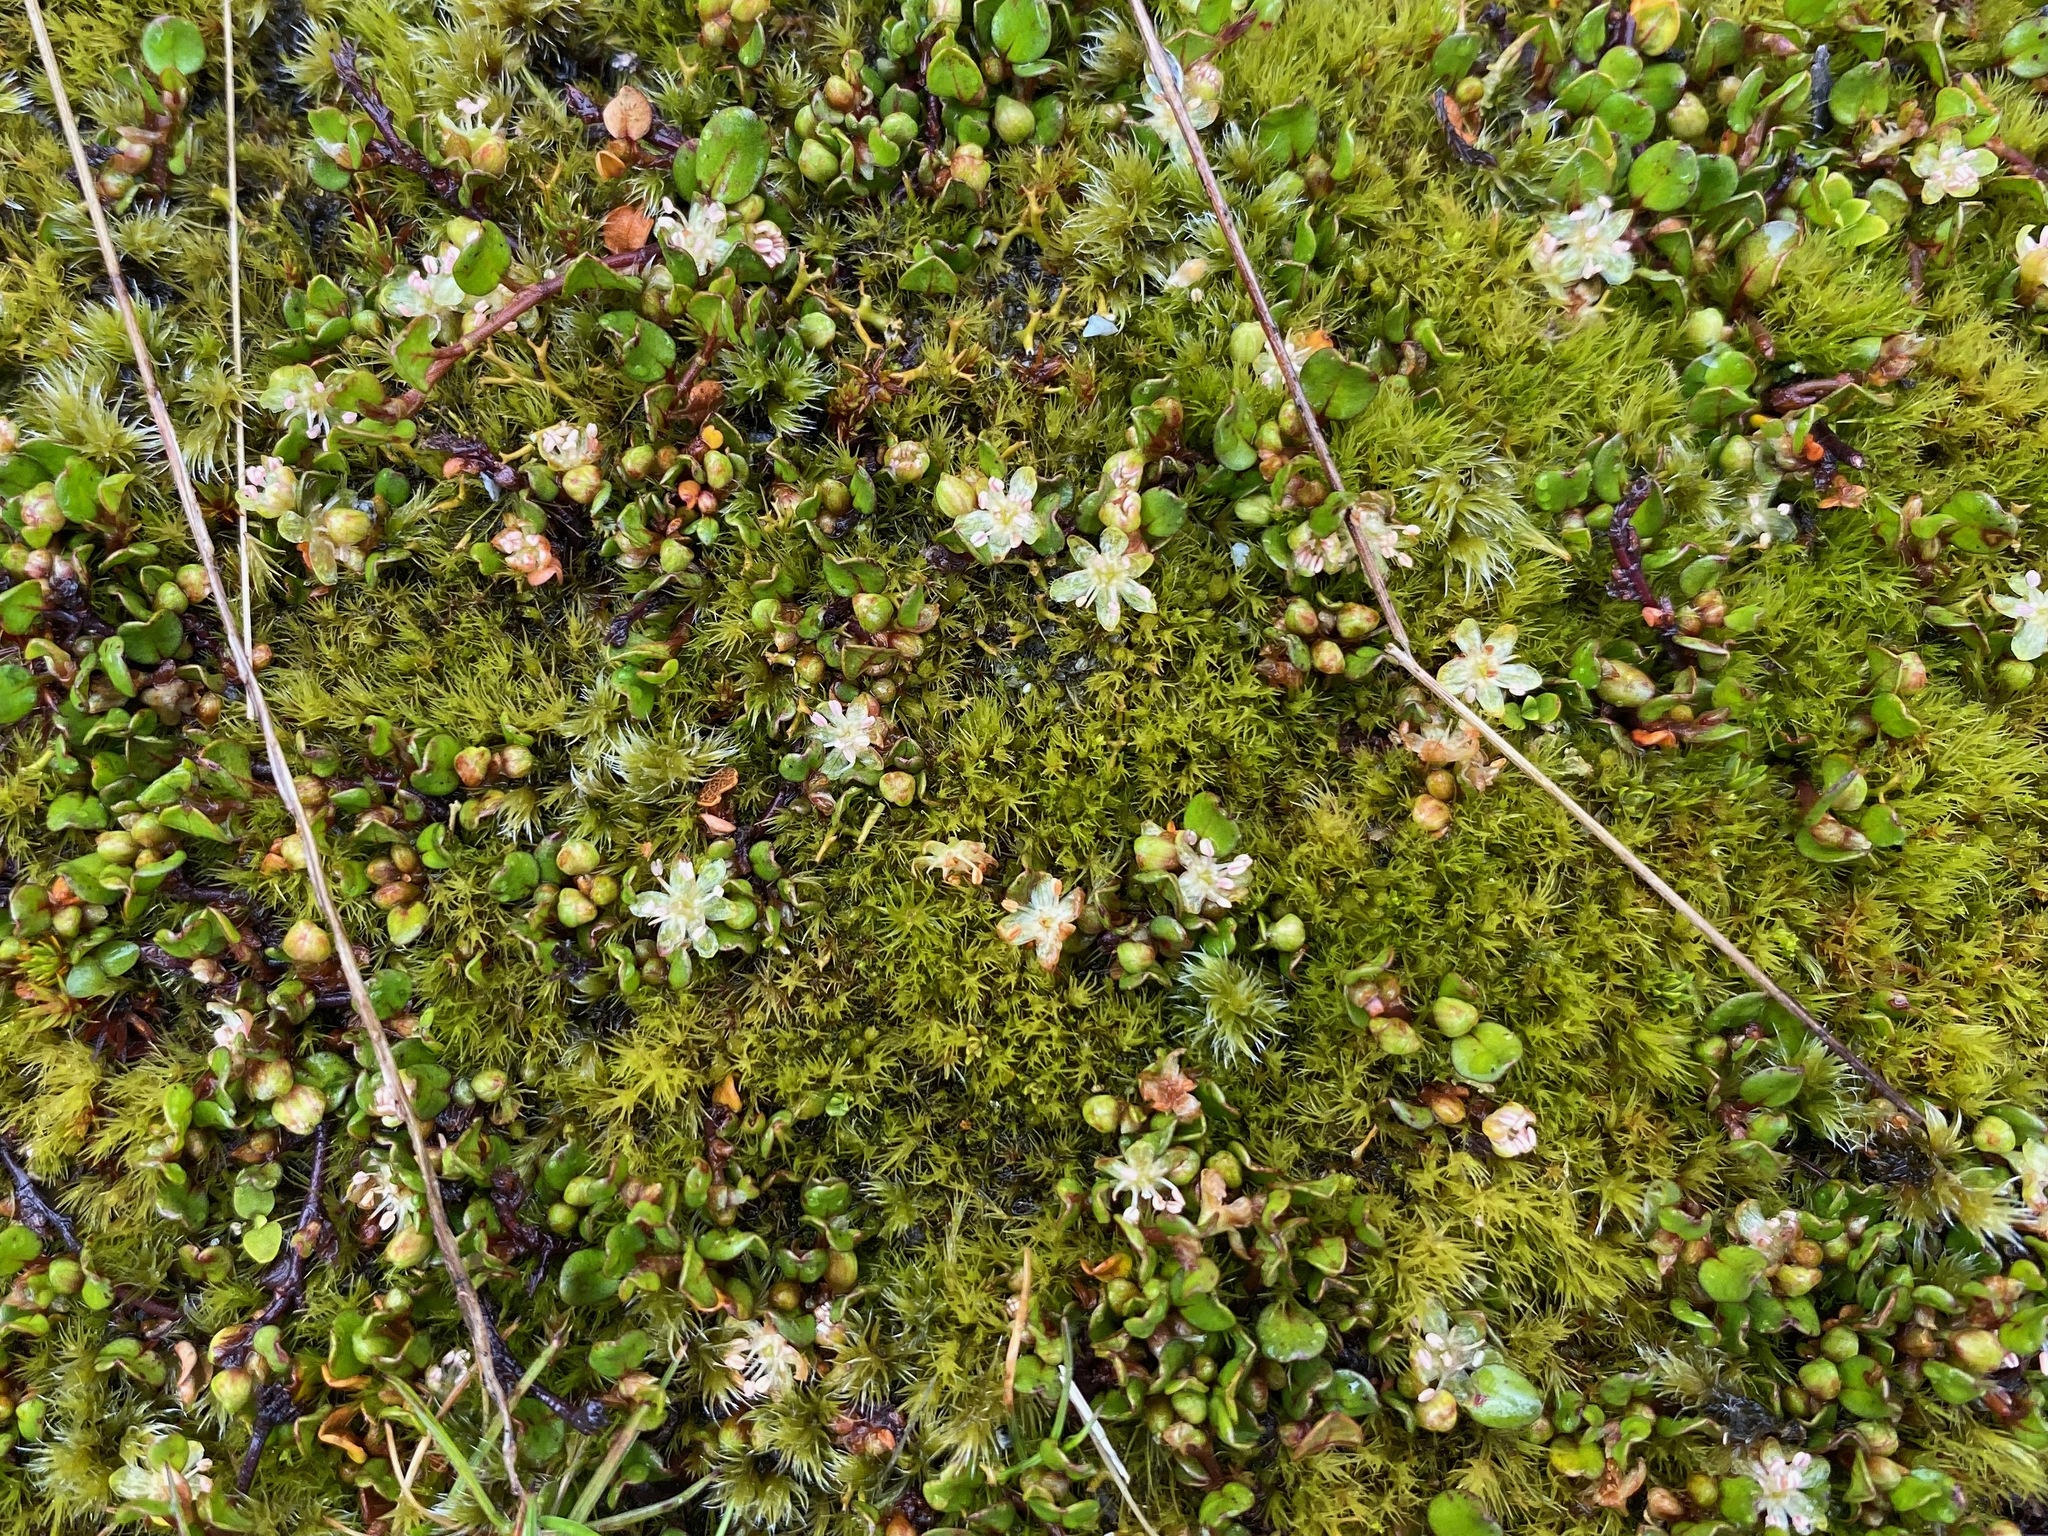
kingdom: Plantae
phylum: Tracheophyta
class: Magnoliopsida
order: Caryophyllales
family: Polygonaceae
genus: Muehlenbeckia
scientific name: Muehlenbeckia axillaris
